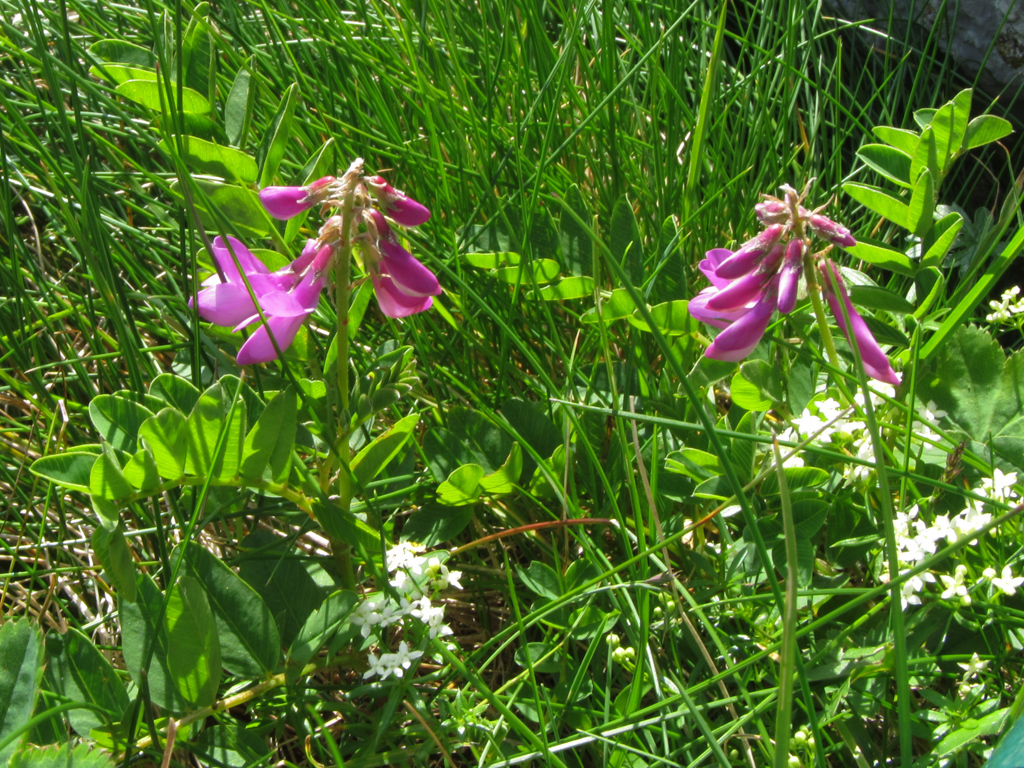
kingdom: Plantae
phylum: Tracheophyta
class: Magnoliopsida
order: Fabales
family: Fabaceae
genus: Hedysarum
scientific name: Hedysarum hedysaroides
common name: Alpine french-honeysuckle
